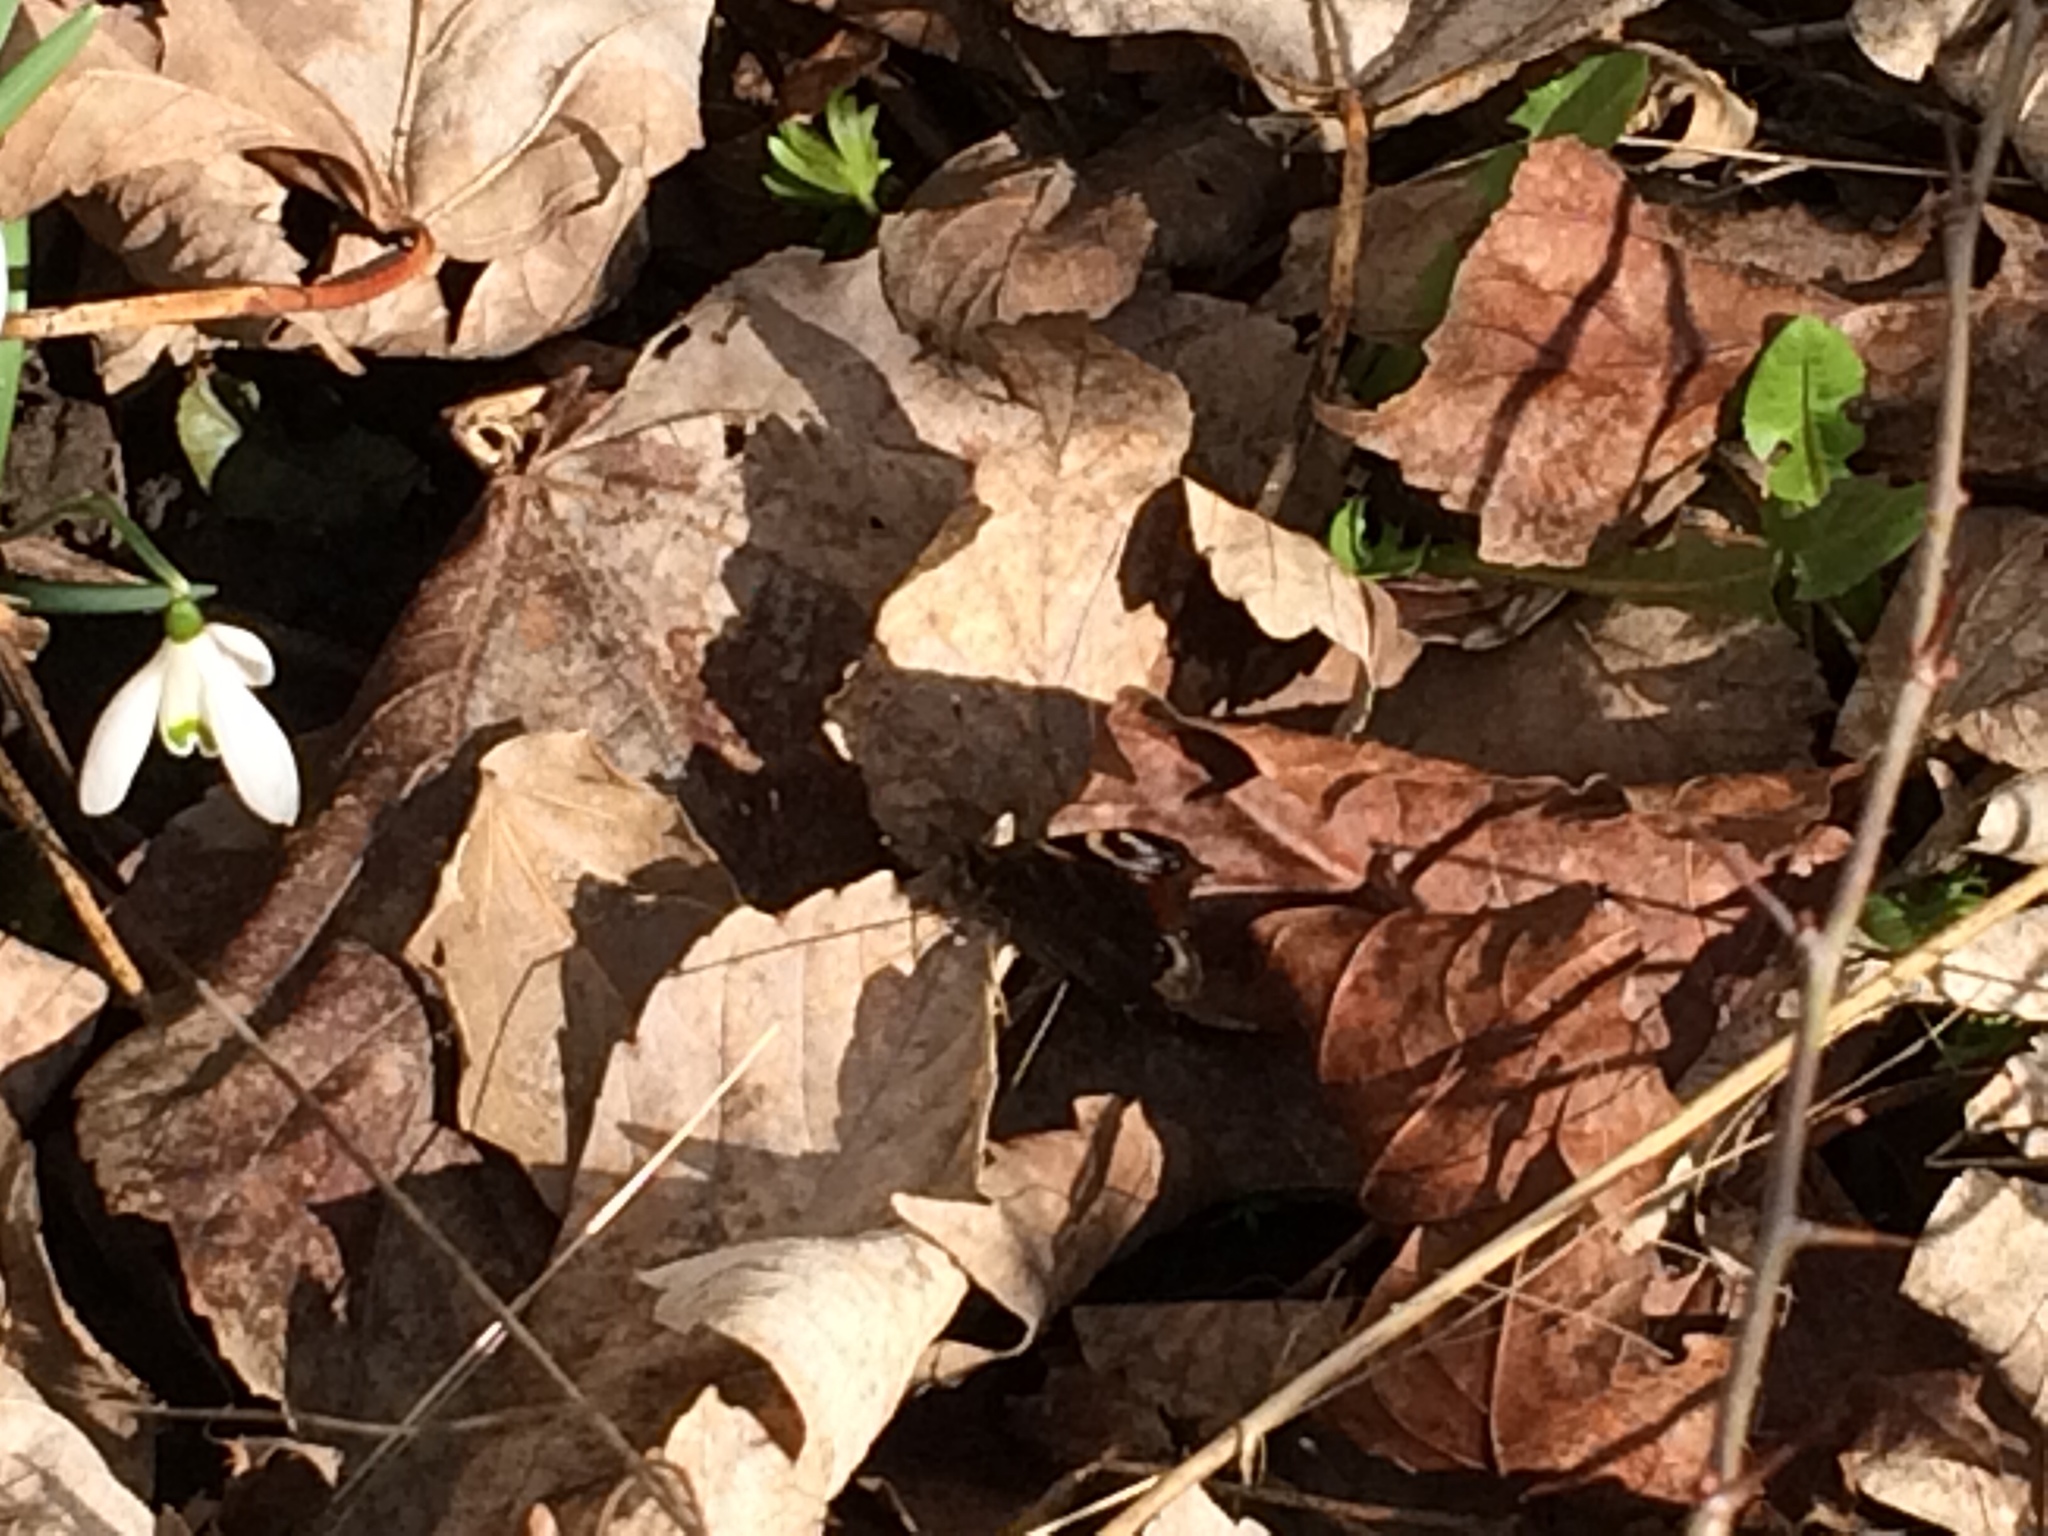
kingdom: Animalia
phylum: Arthropoda
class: Insecta
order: Lepidoptera
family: Nymphalidae
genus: Aglais
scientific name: Aglais io
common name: Peacock
